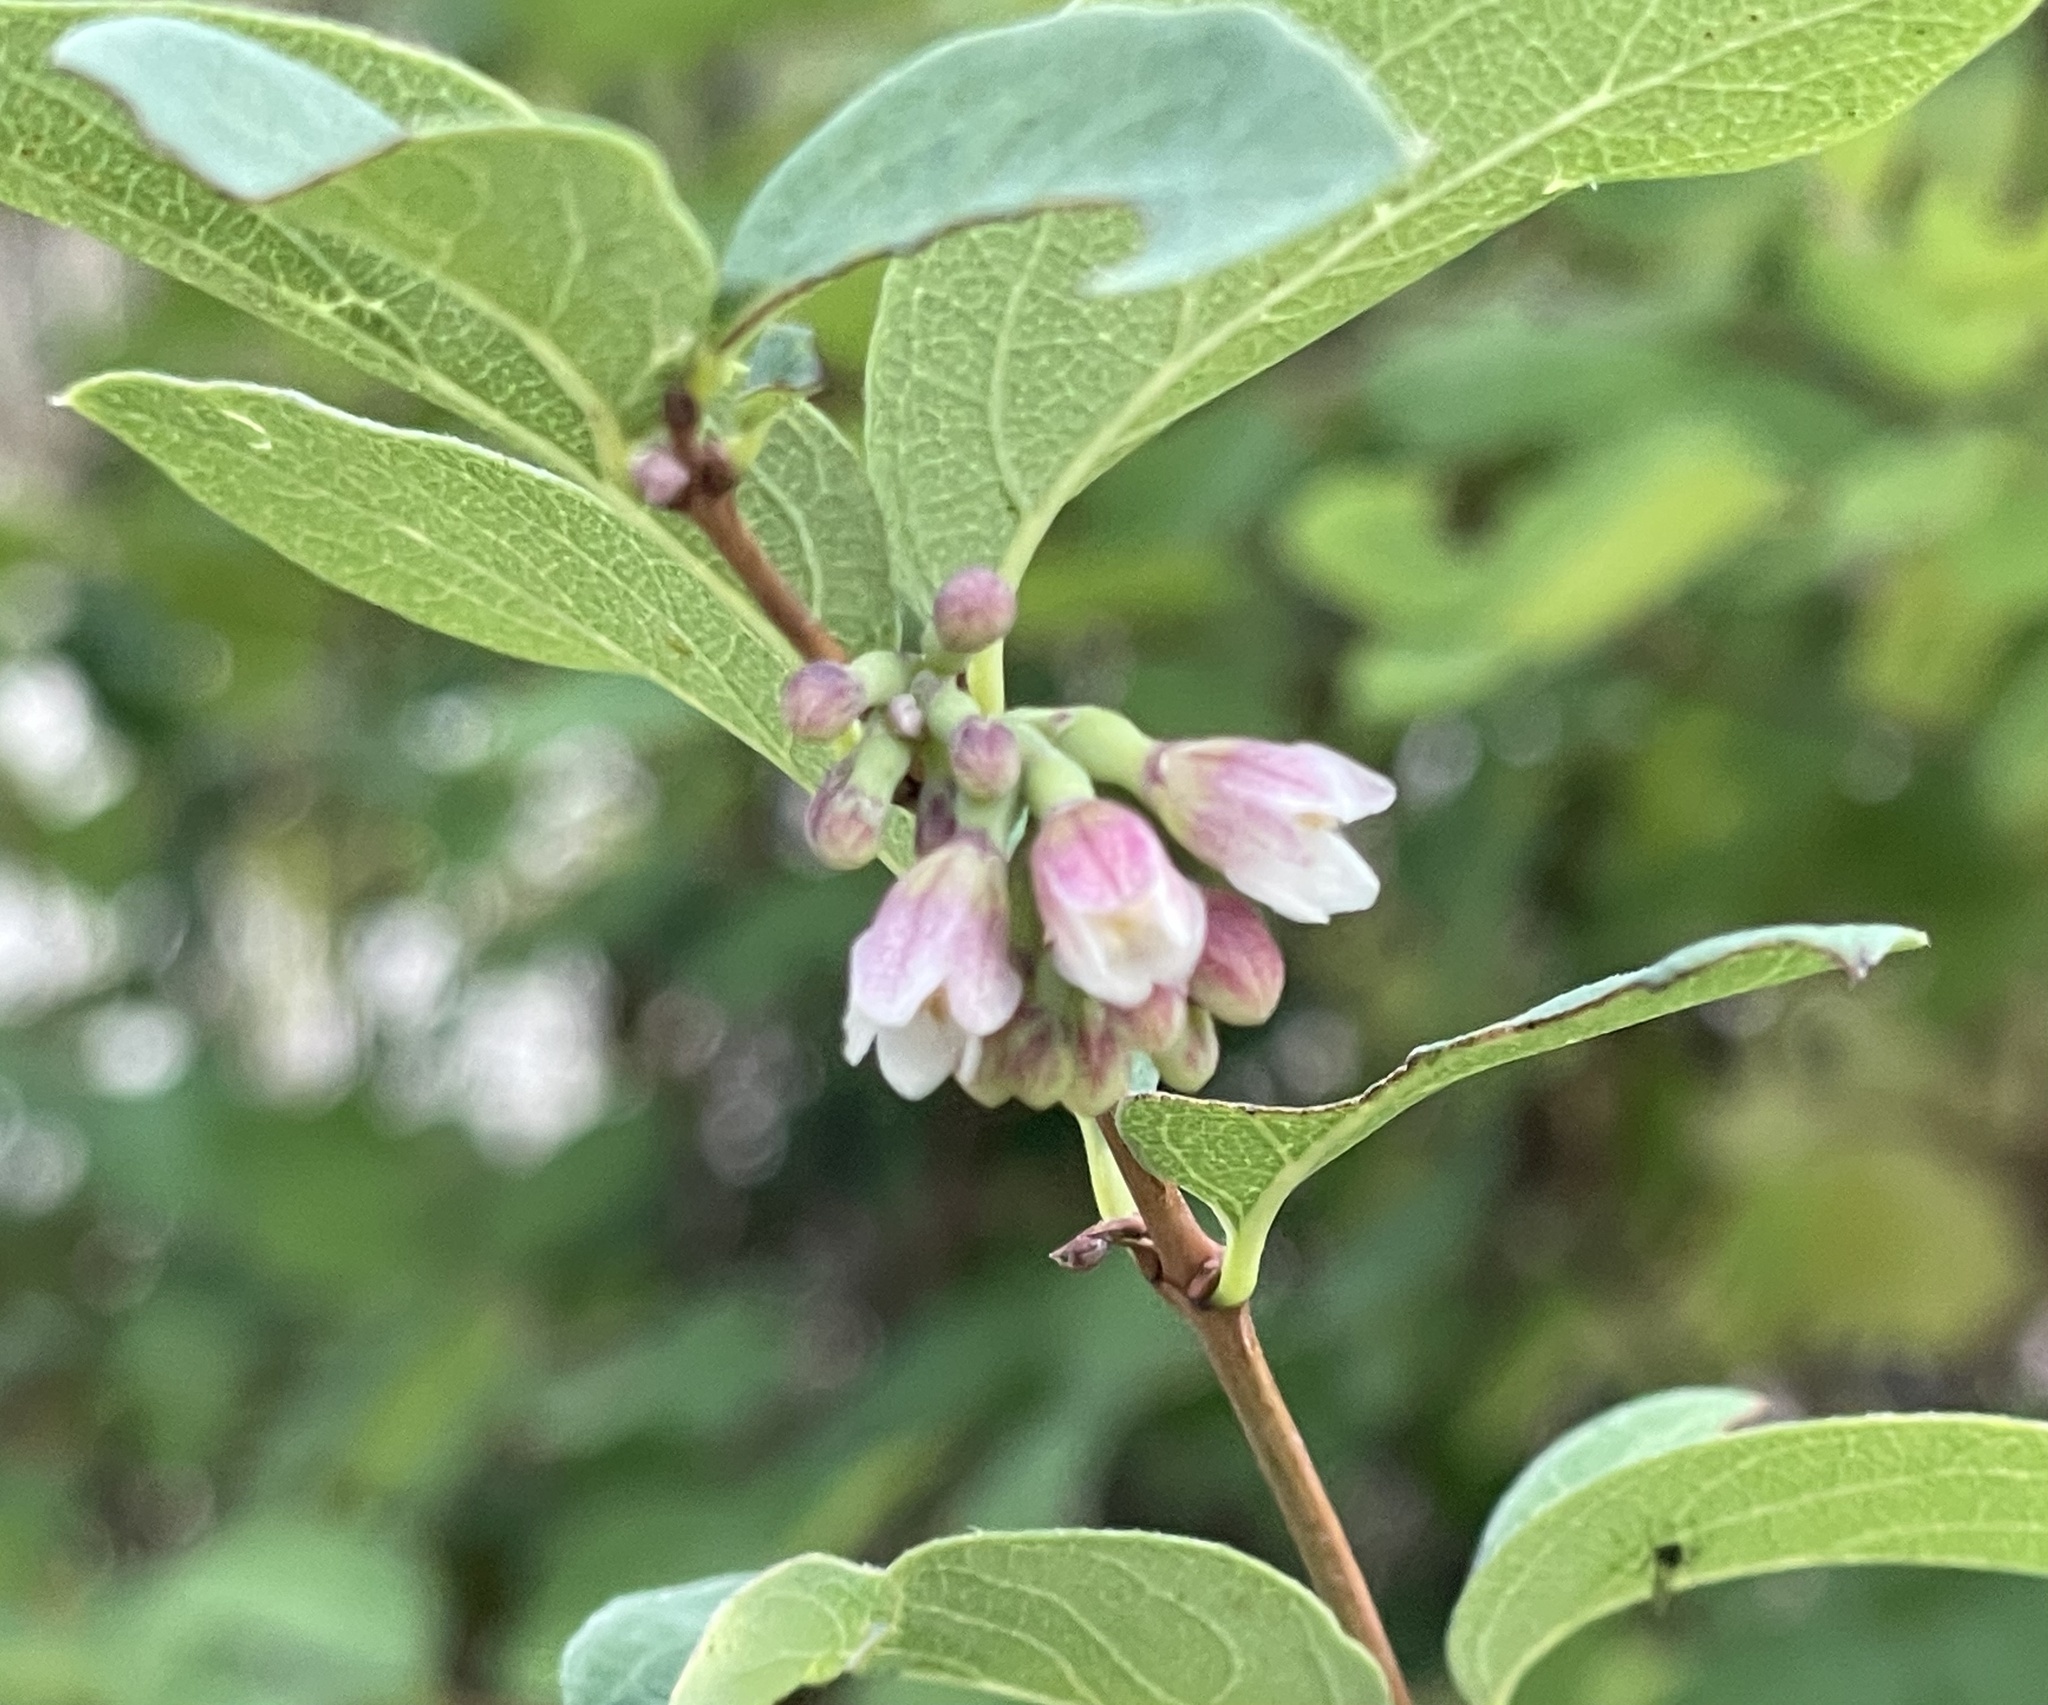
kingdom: Plantae
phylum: Tracheophyta
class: Magnoliopsida
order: Dipsacales
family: Caprifoliaceae
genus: Symphoricarpos
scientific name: Symphoricarpos albus
